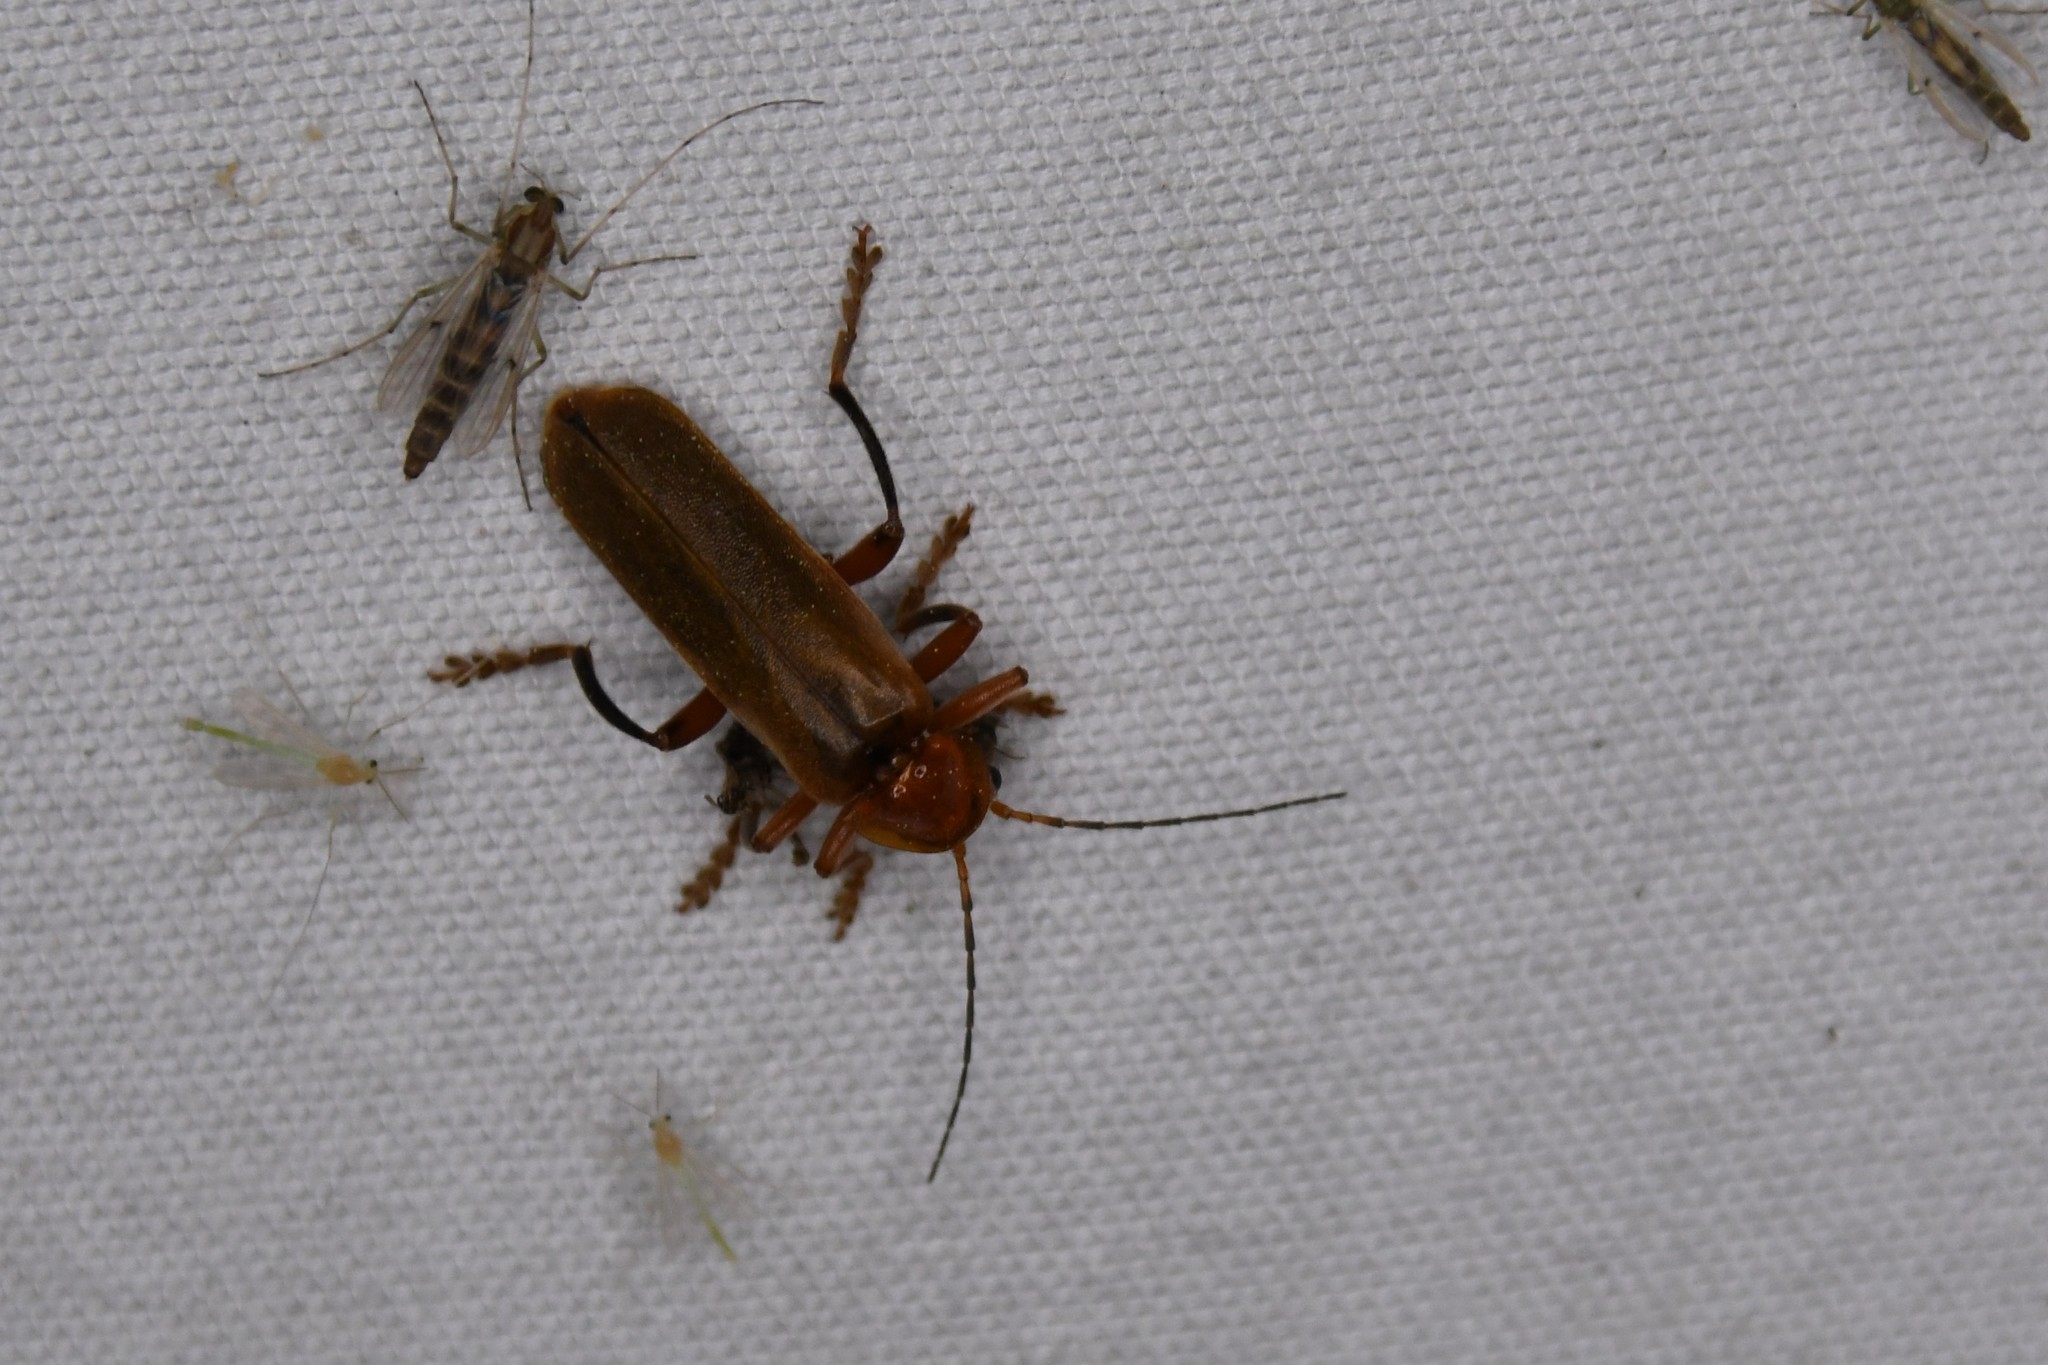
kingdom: Animalia
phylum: Arthropoda
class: Insecta
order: Coleoptera
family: Cantharidae
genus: Cantharis
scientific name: Cantharis livida
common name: Livid soldier beetle
